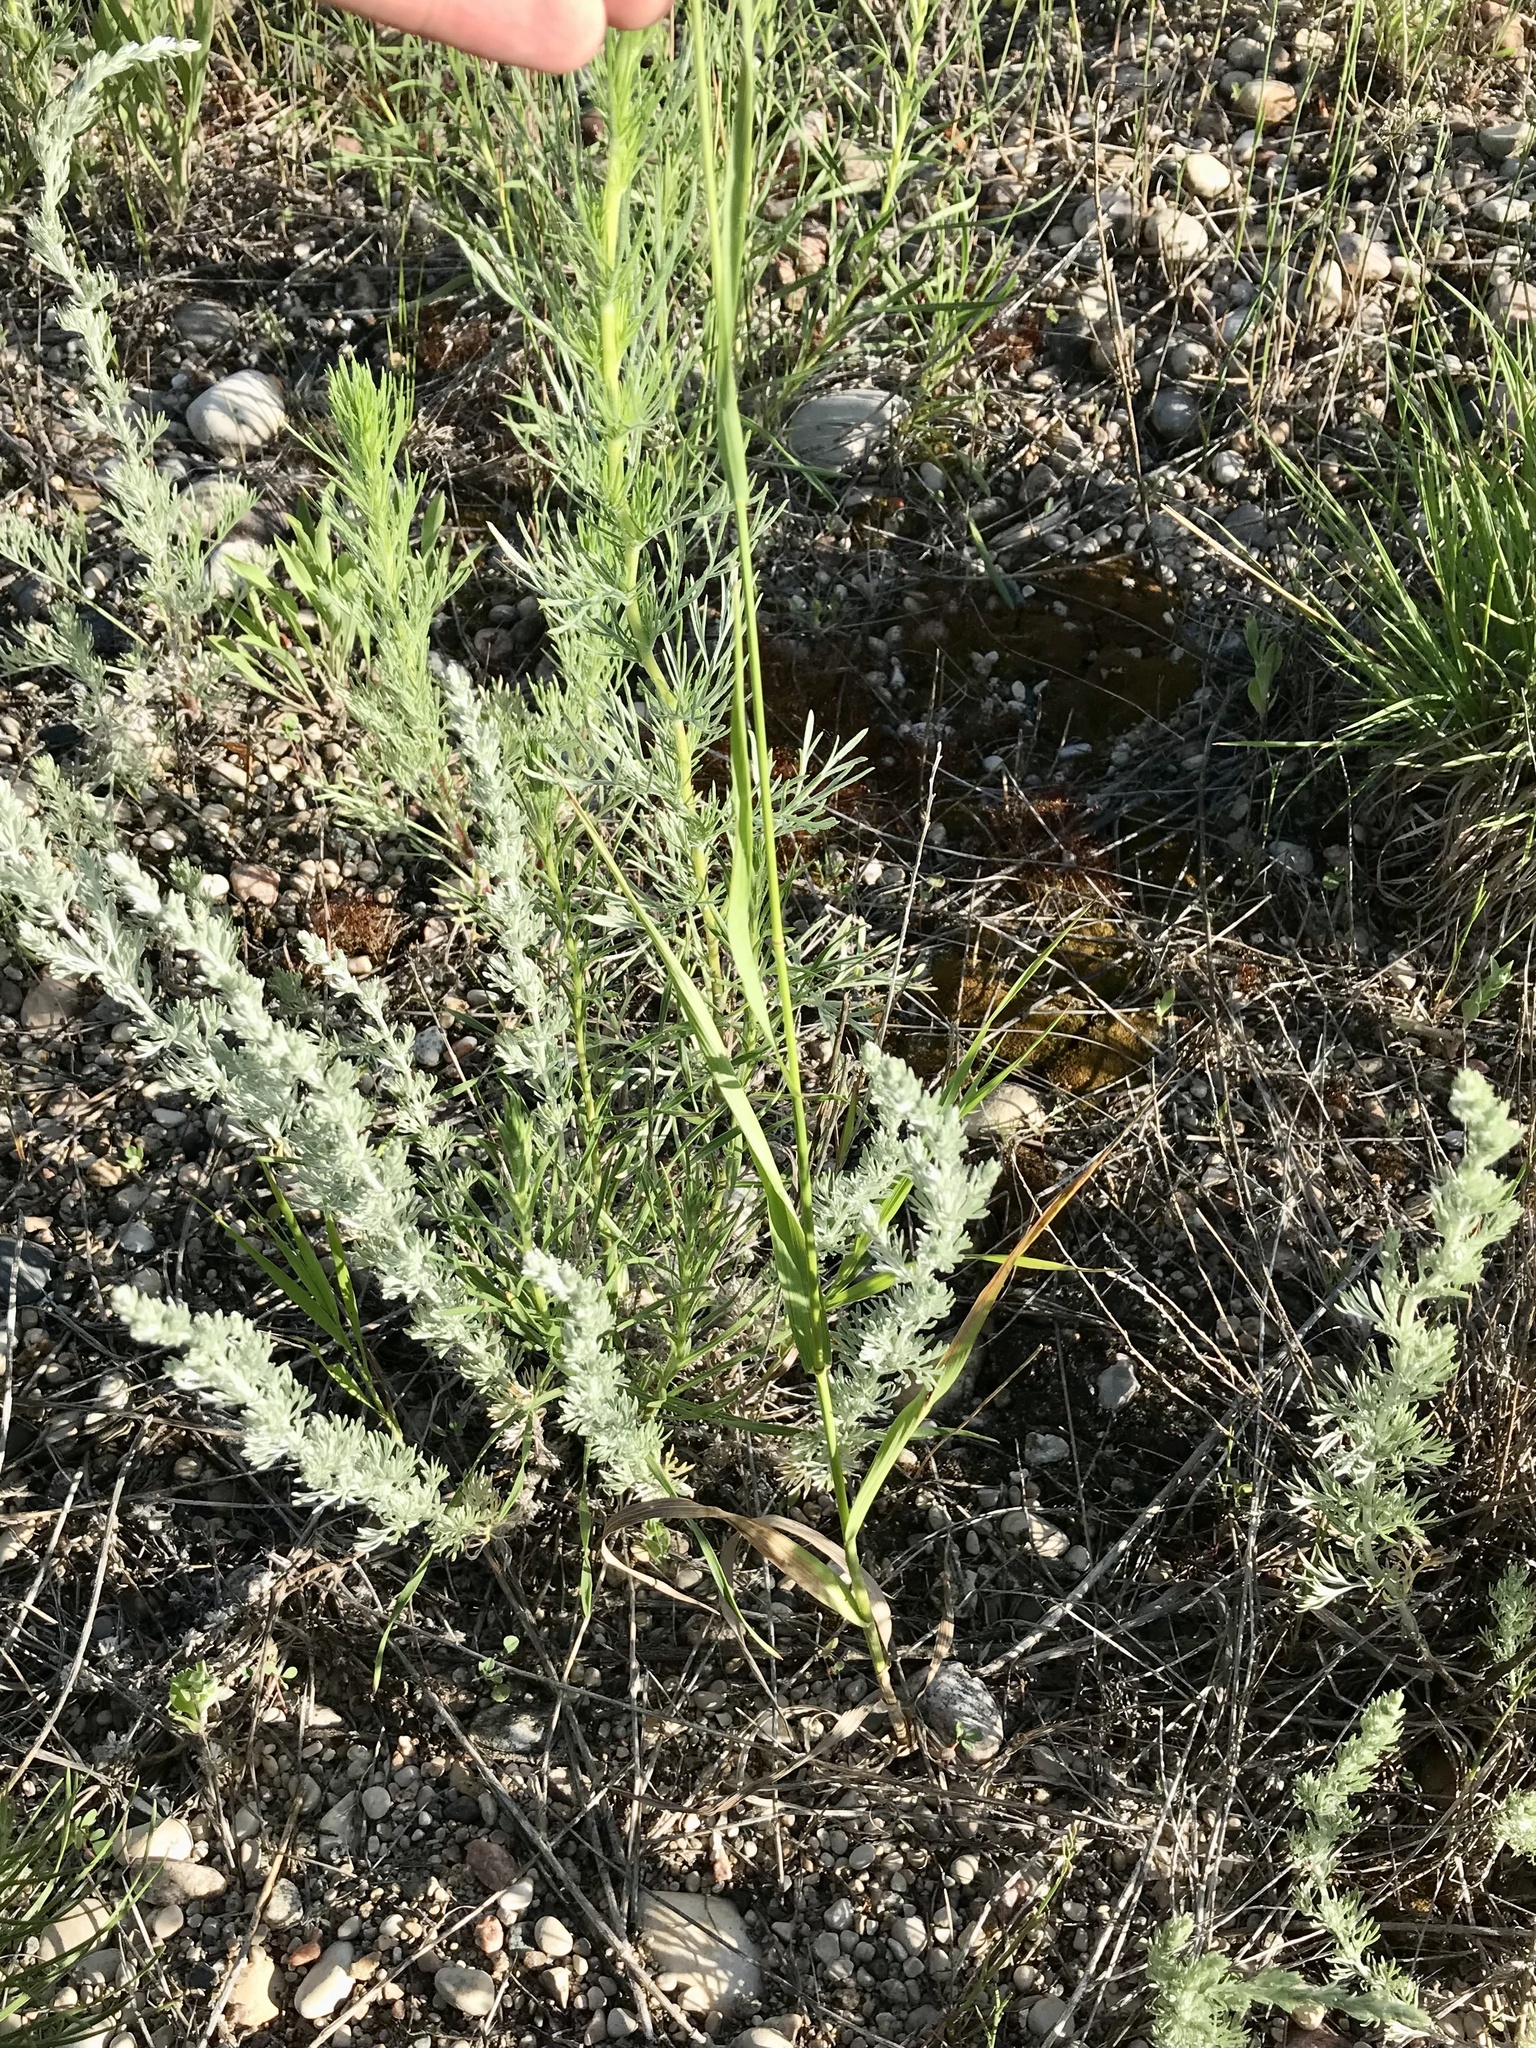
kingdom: Plantae
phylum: Tracheophyta
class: Liliopsida
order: Poales
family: Poaceae
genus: Bromus
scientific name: Bromus inermis
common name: Smooth brome
